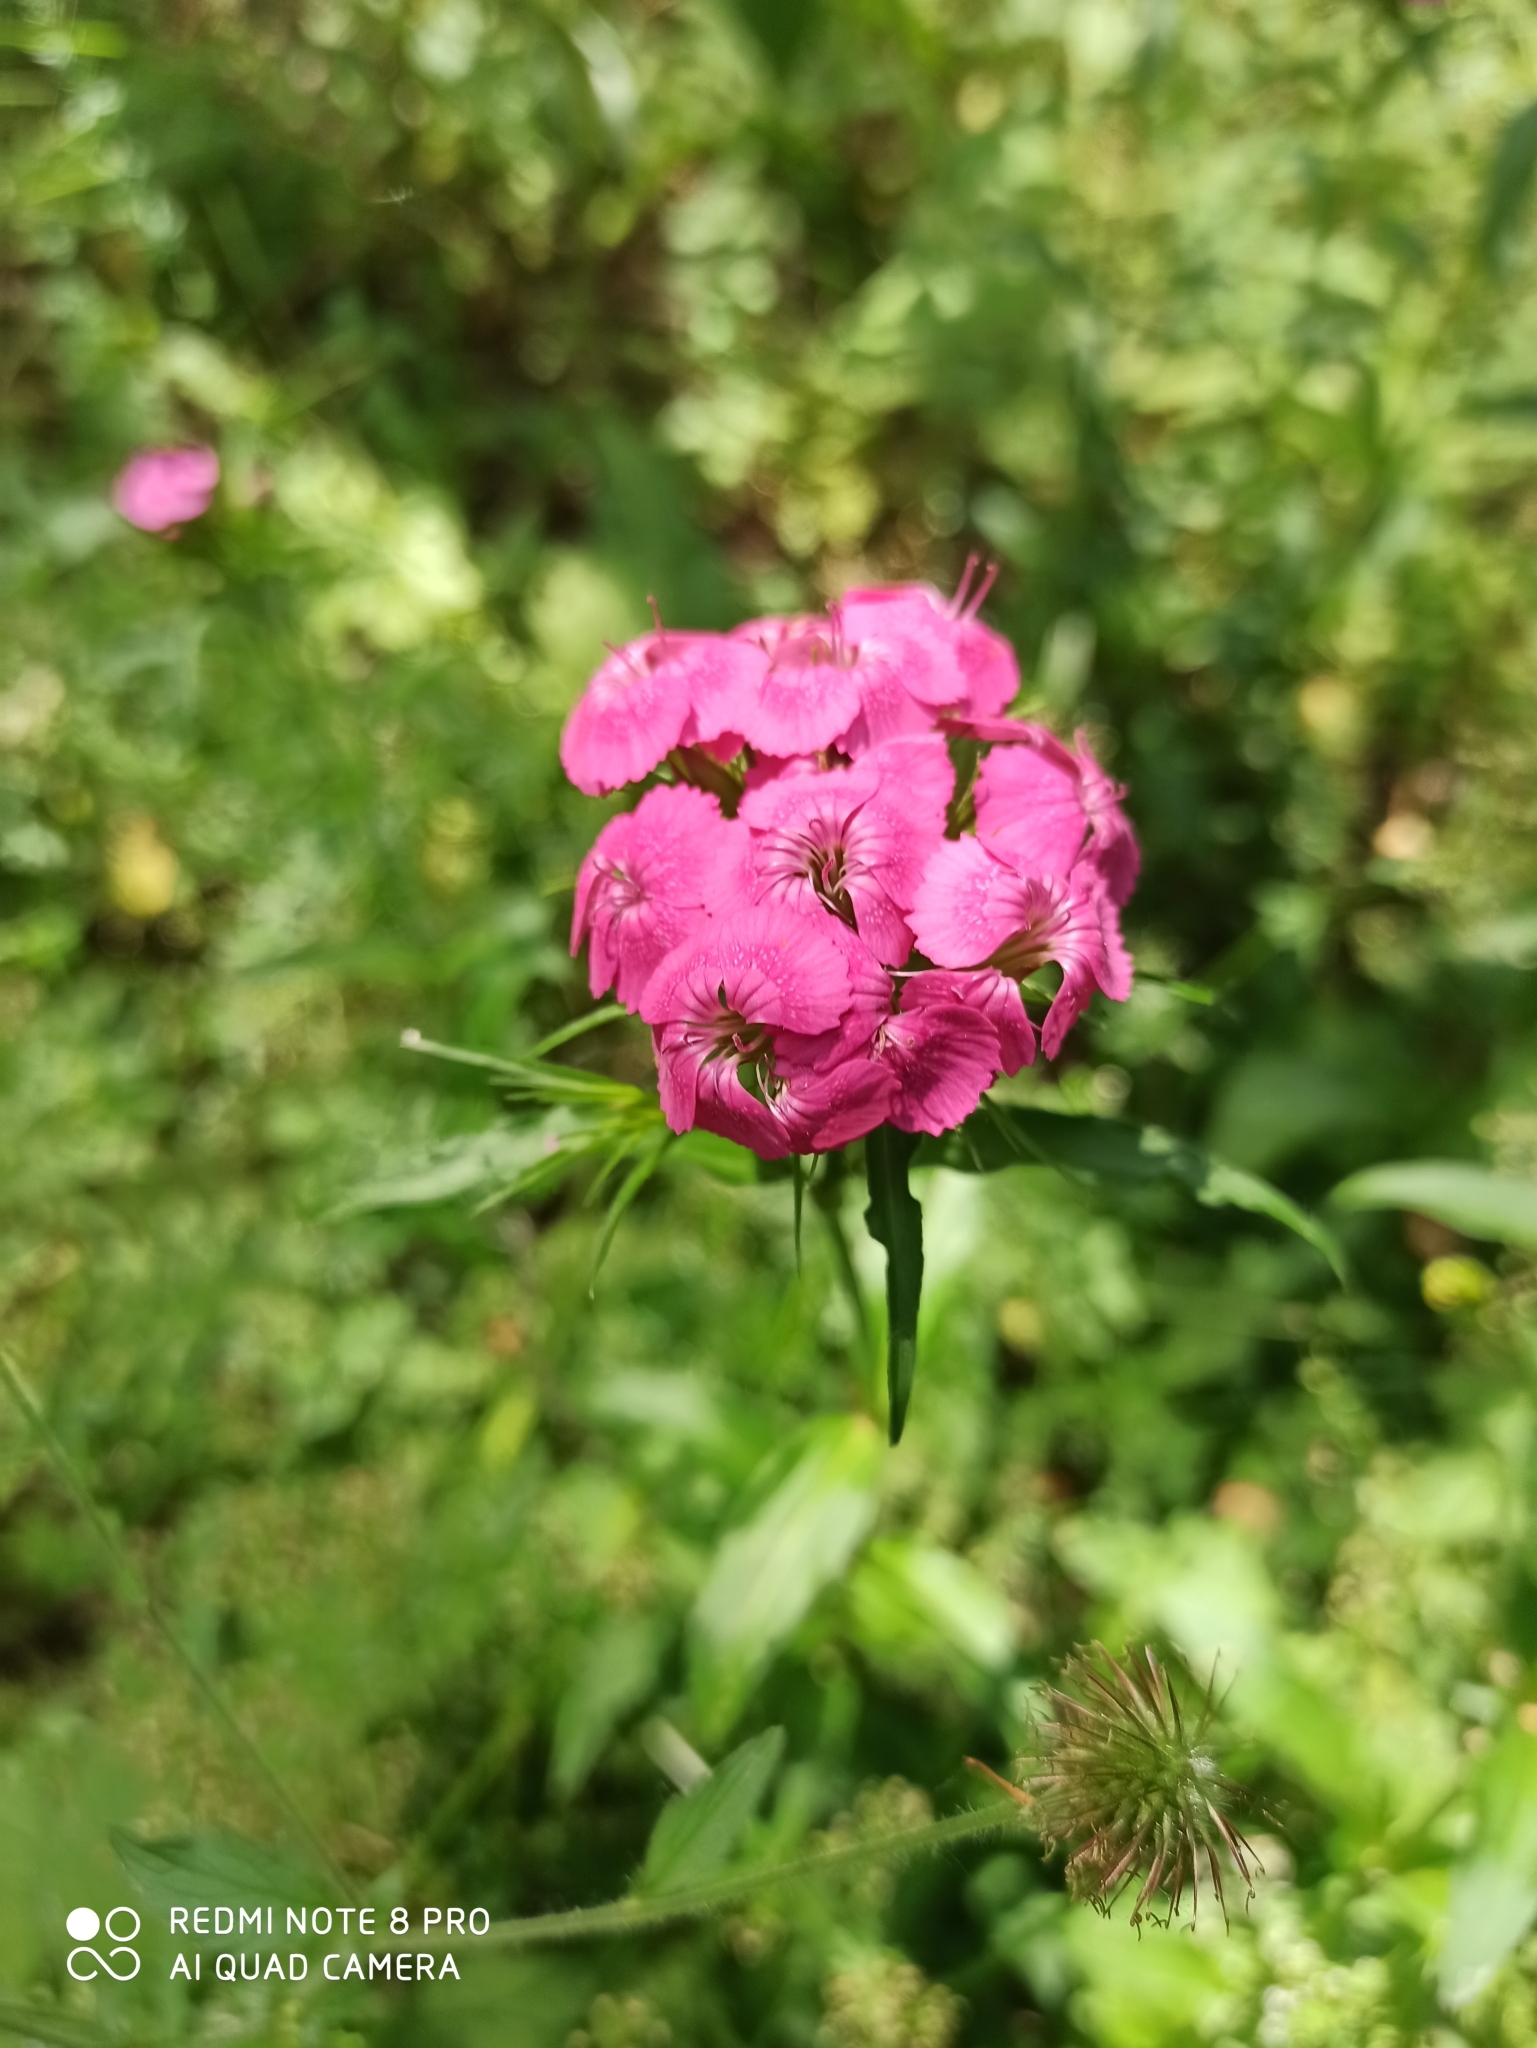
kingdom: Plantae
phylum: Tracheophyta
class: Magnoliopsida
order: Caryophyllales
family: Caryophyllaceae
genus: Dianthus
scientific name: Dianthus barbatus
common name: Sweet-william
